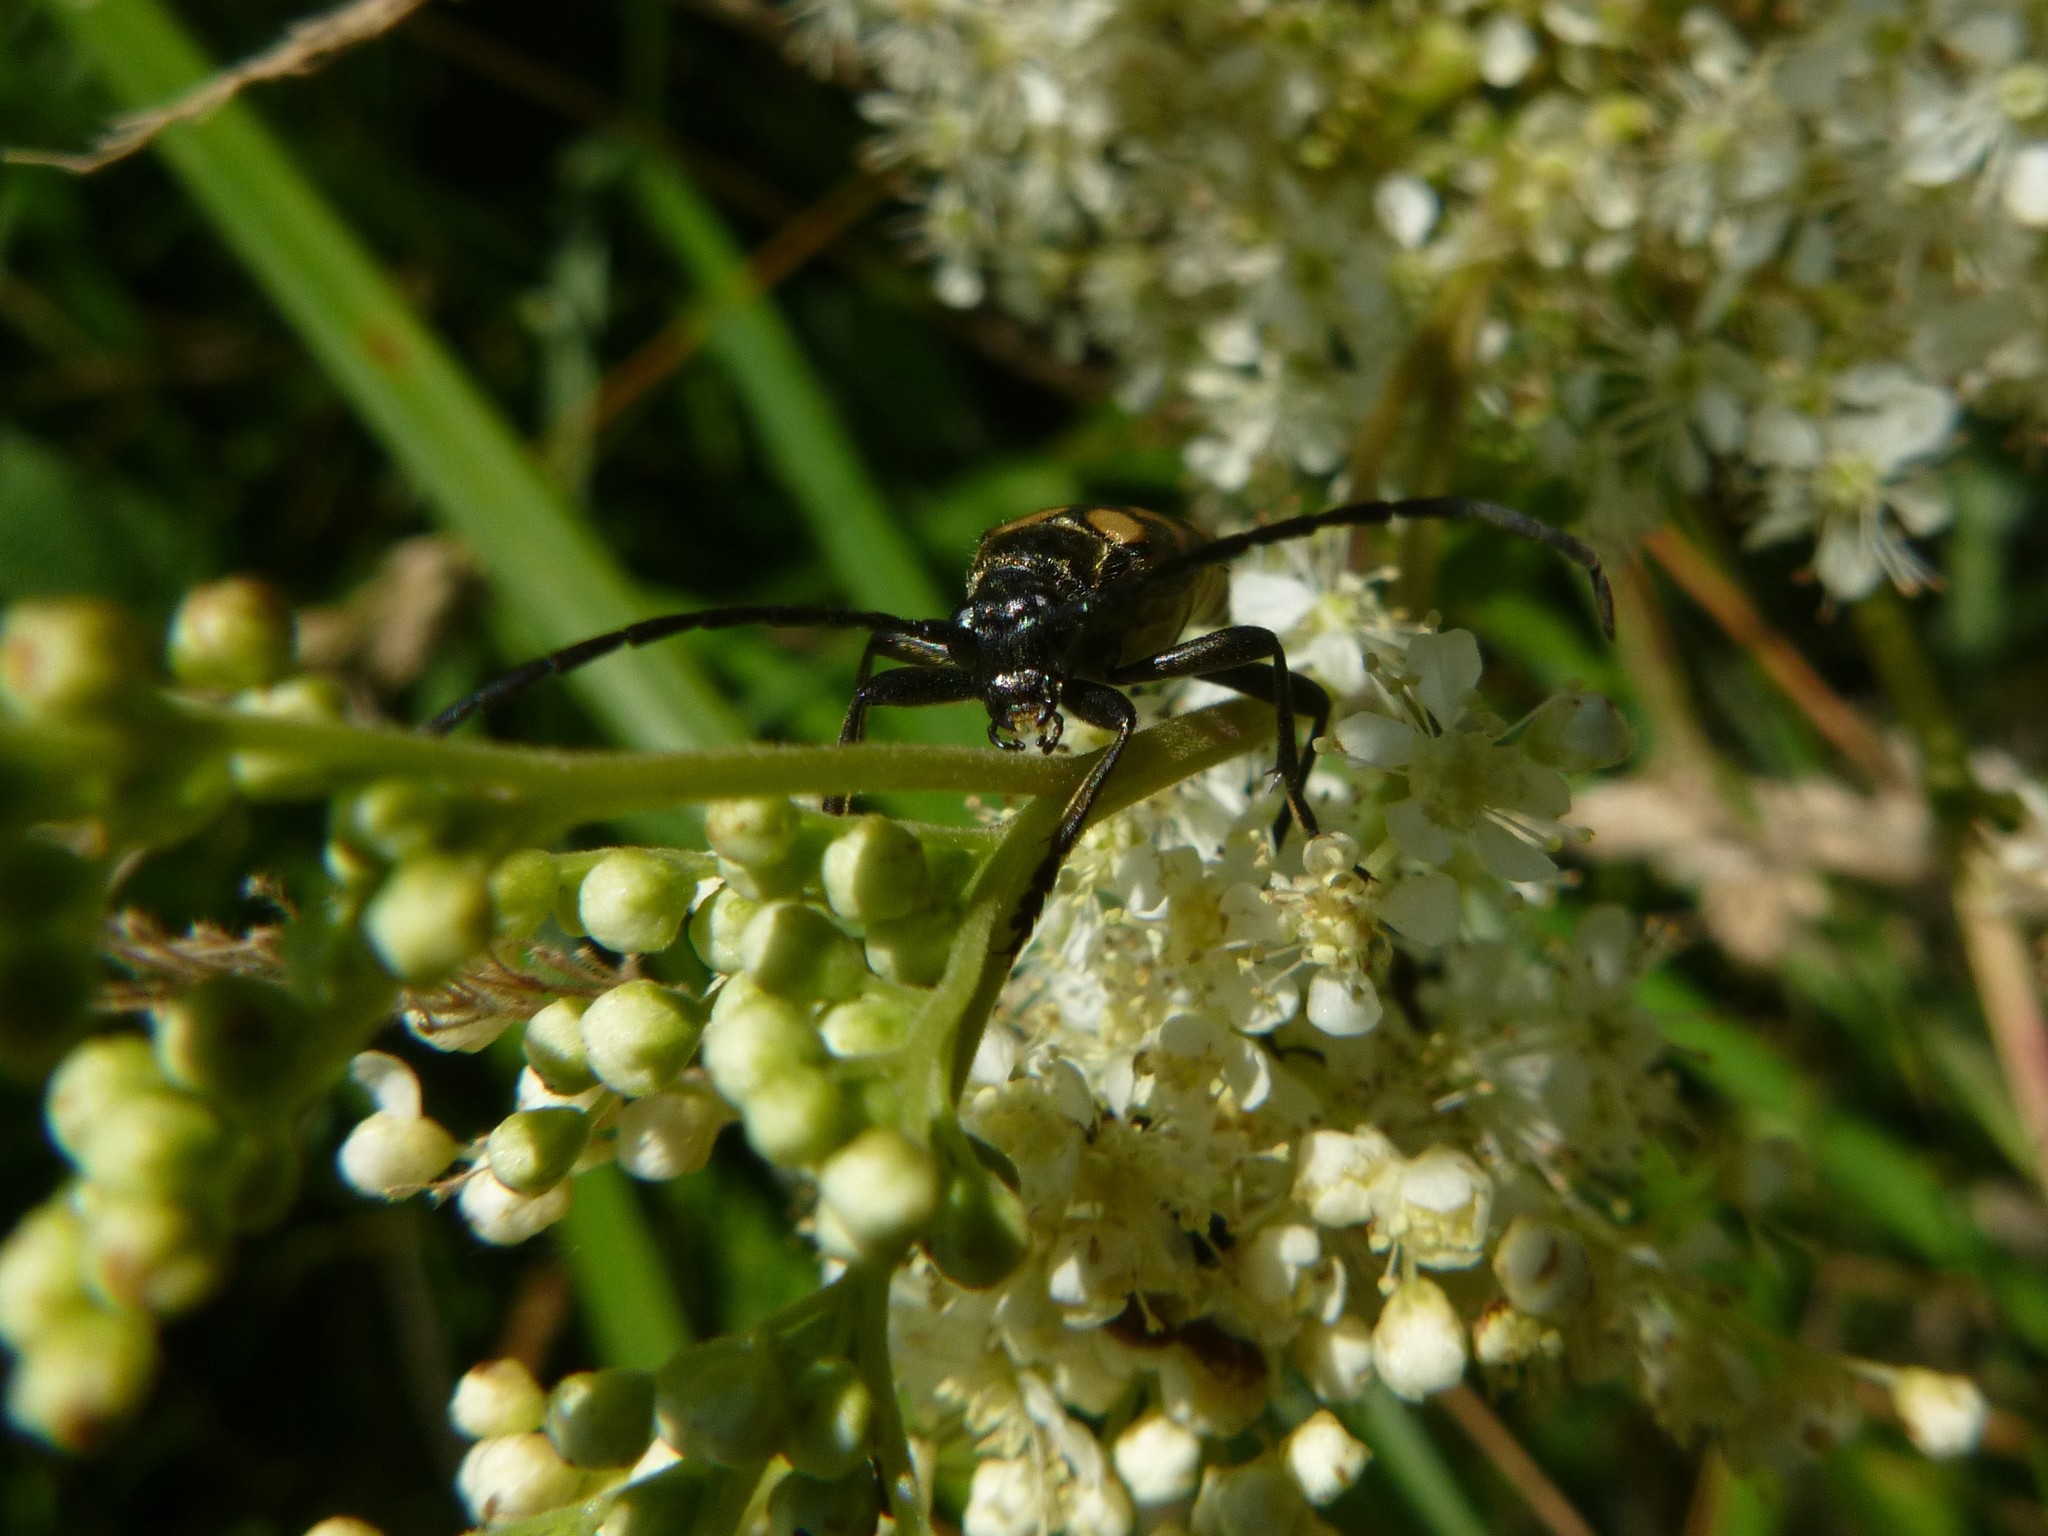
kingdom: Animalia
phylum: Arthropoda
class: Insecta
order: Coleoptera
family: Cerambycidae
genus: Leptura
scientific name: Leptura quadrifasciata
